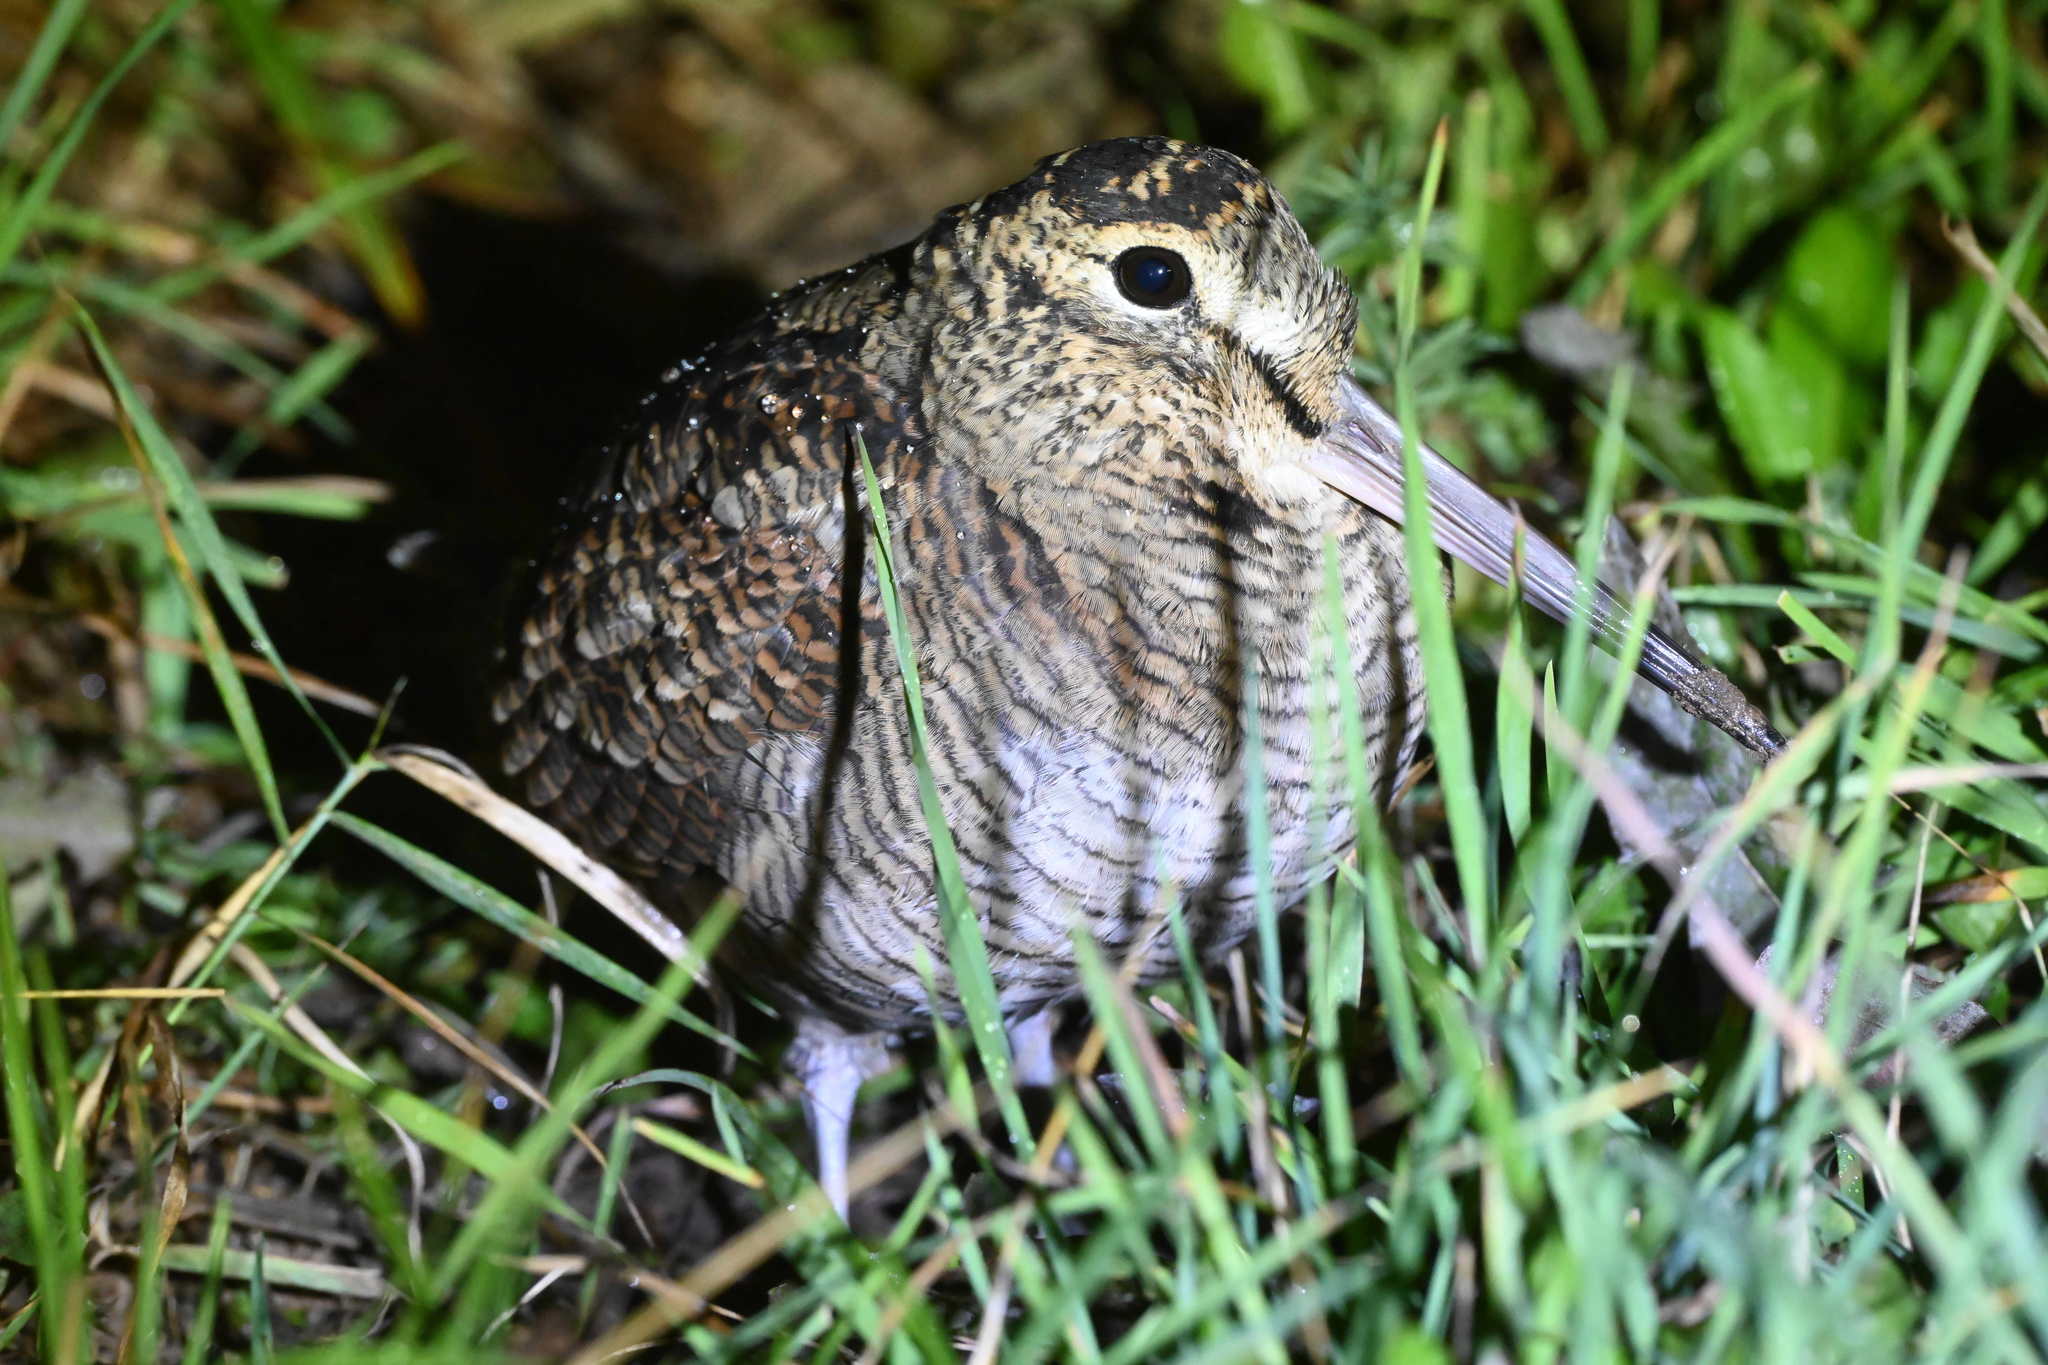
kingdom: Animalia
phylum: Chordata
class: Aves
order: Charadriiformes
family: Scolopacidae
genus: Scolopax
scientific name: Scolopax rusticola
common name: Eurasian woodcock
